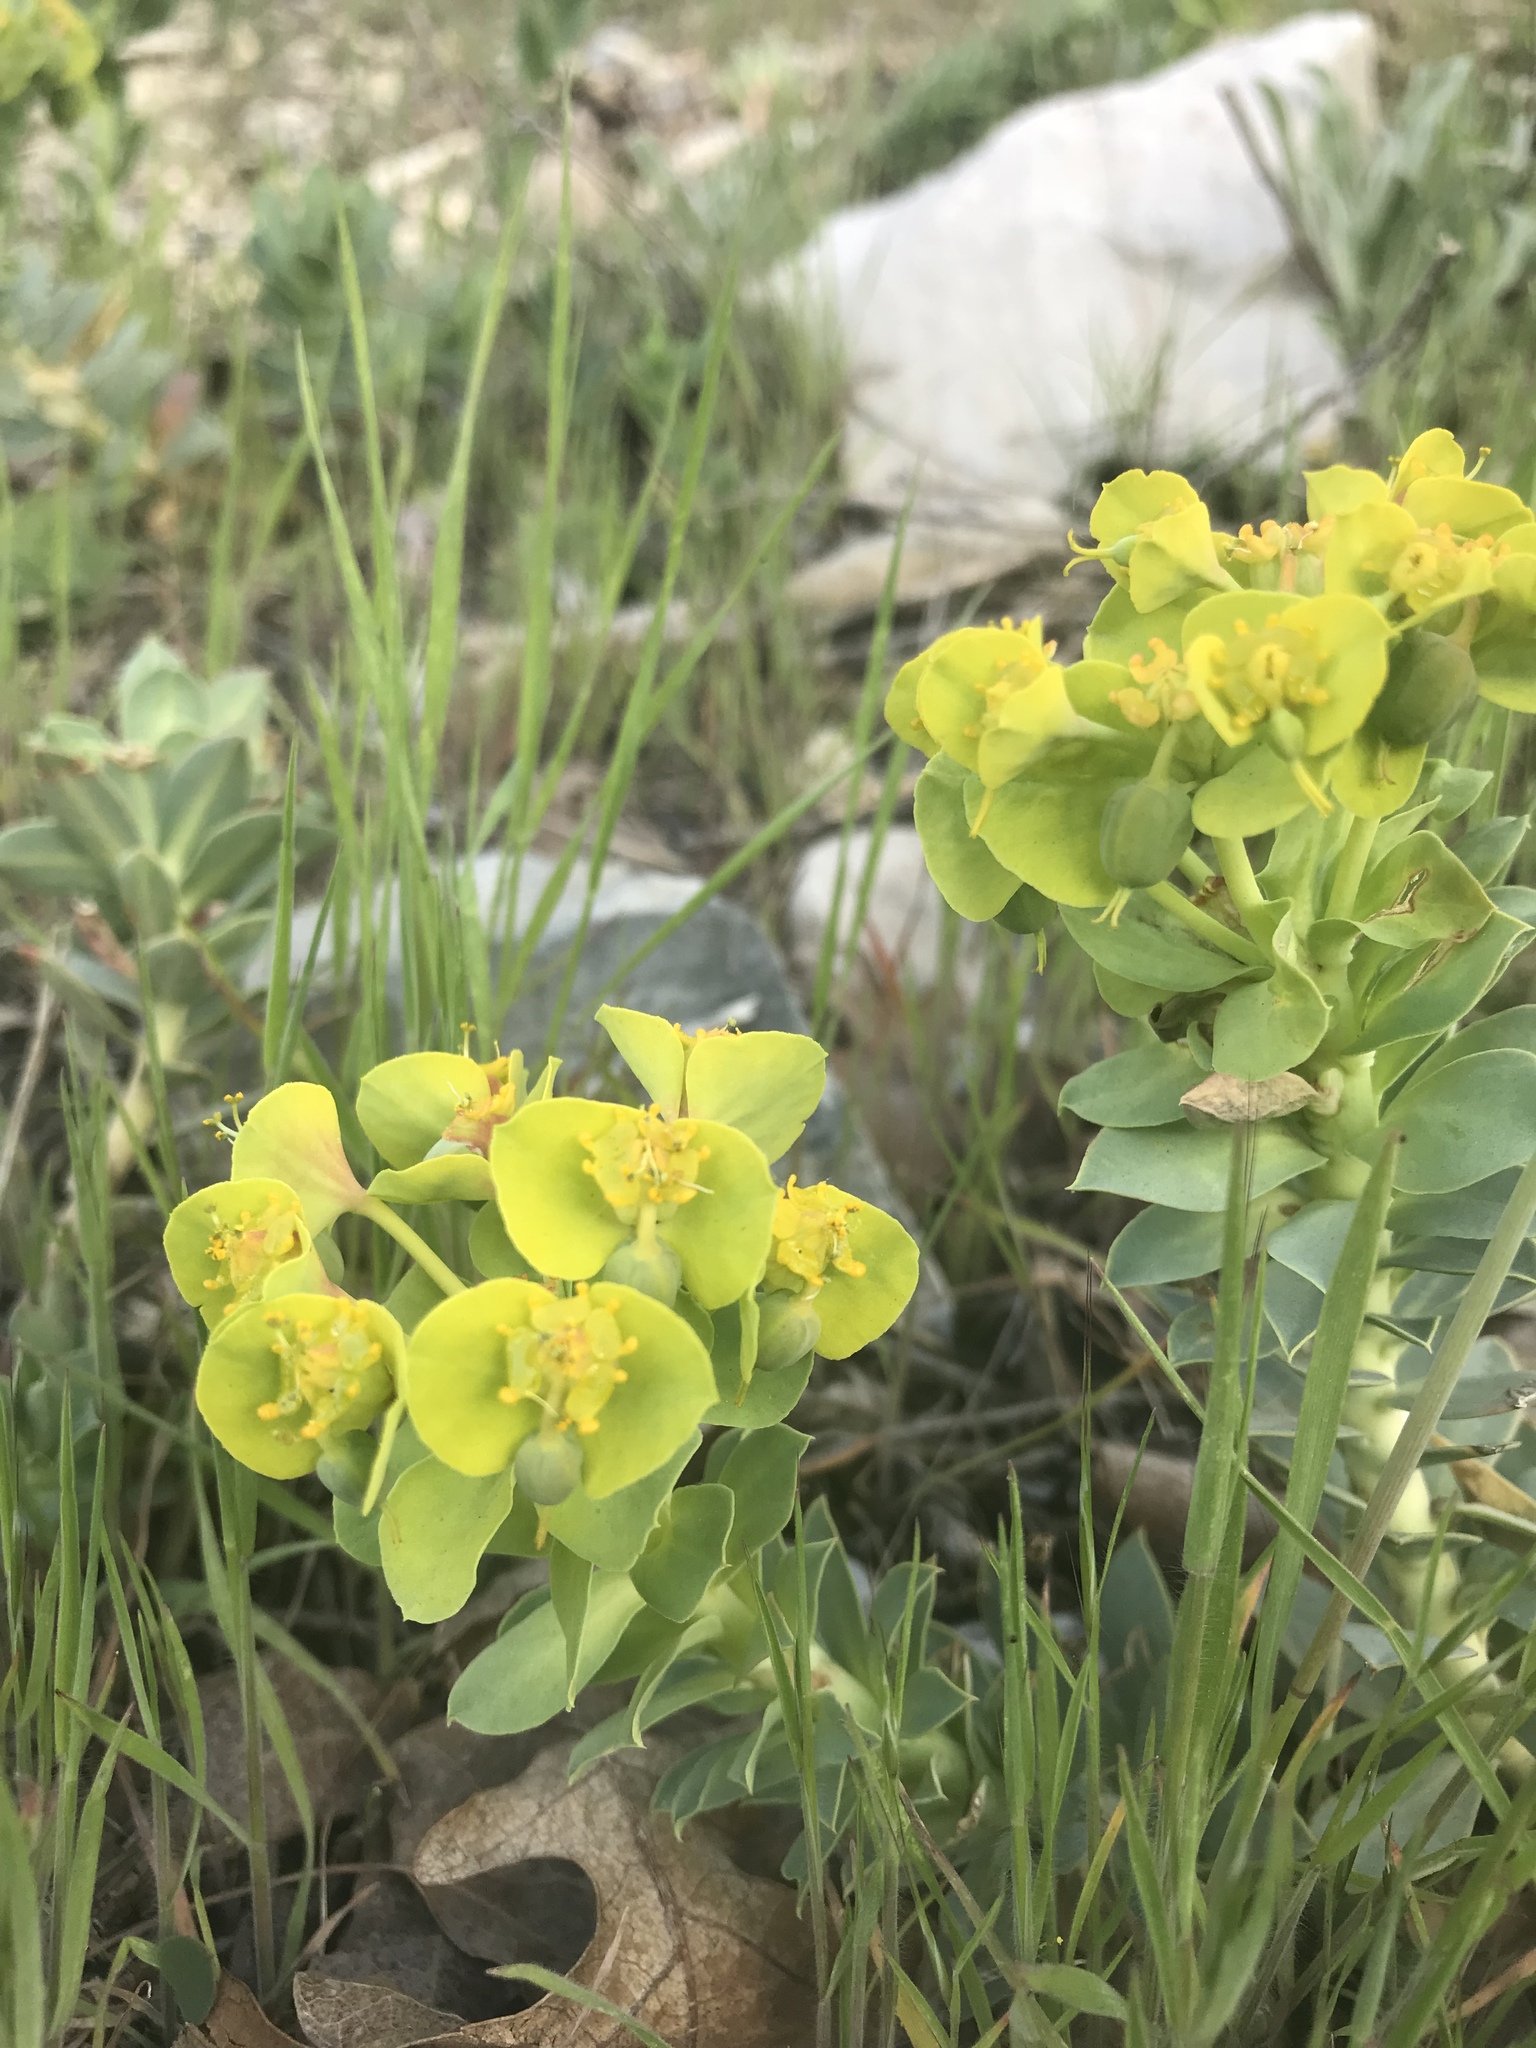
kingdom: Plantae
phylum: Tracheophyta
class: Magnoliopsida
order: Malpighiales
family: Euphorbiaceae
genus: Euphorbia
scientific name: Euphorbia myrsinites
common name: Myrtle spurge
